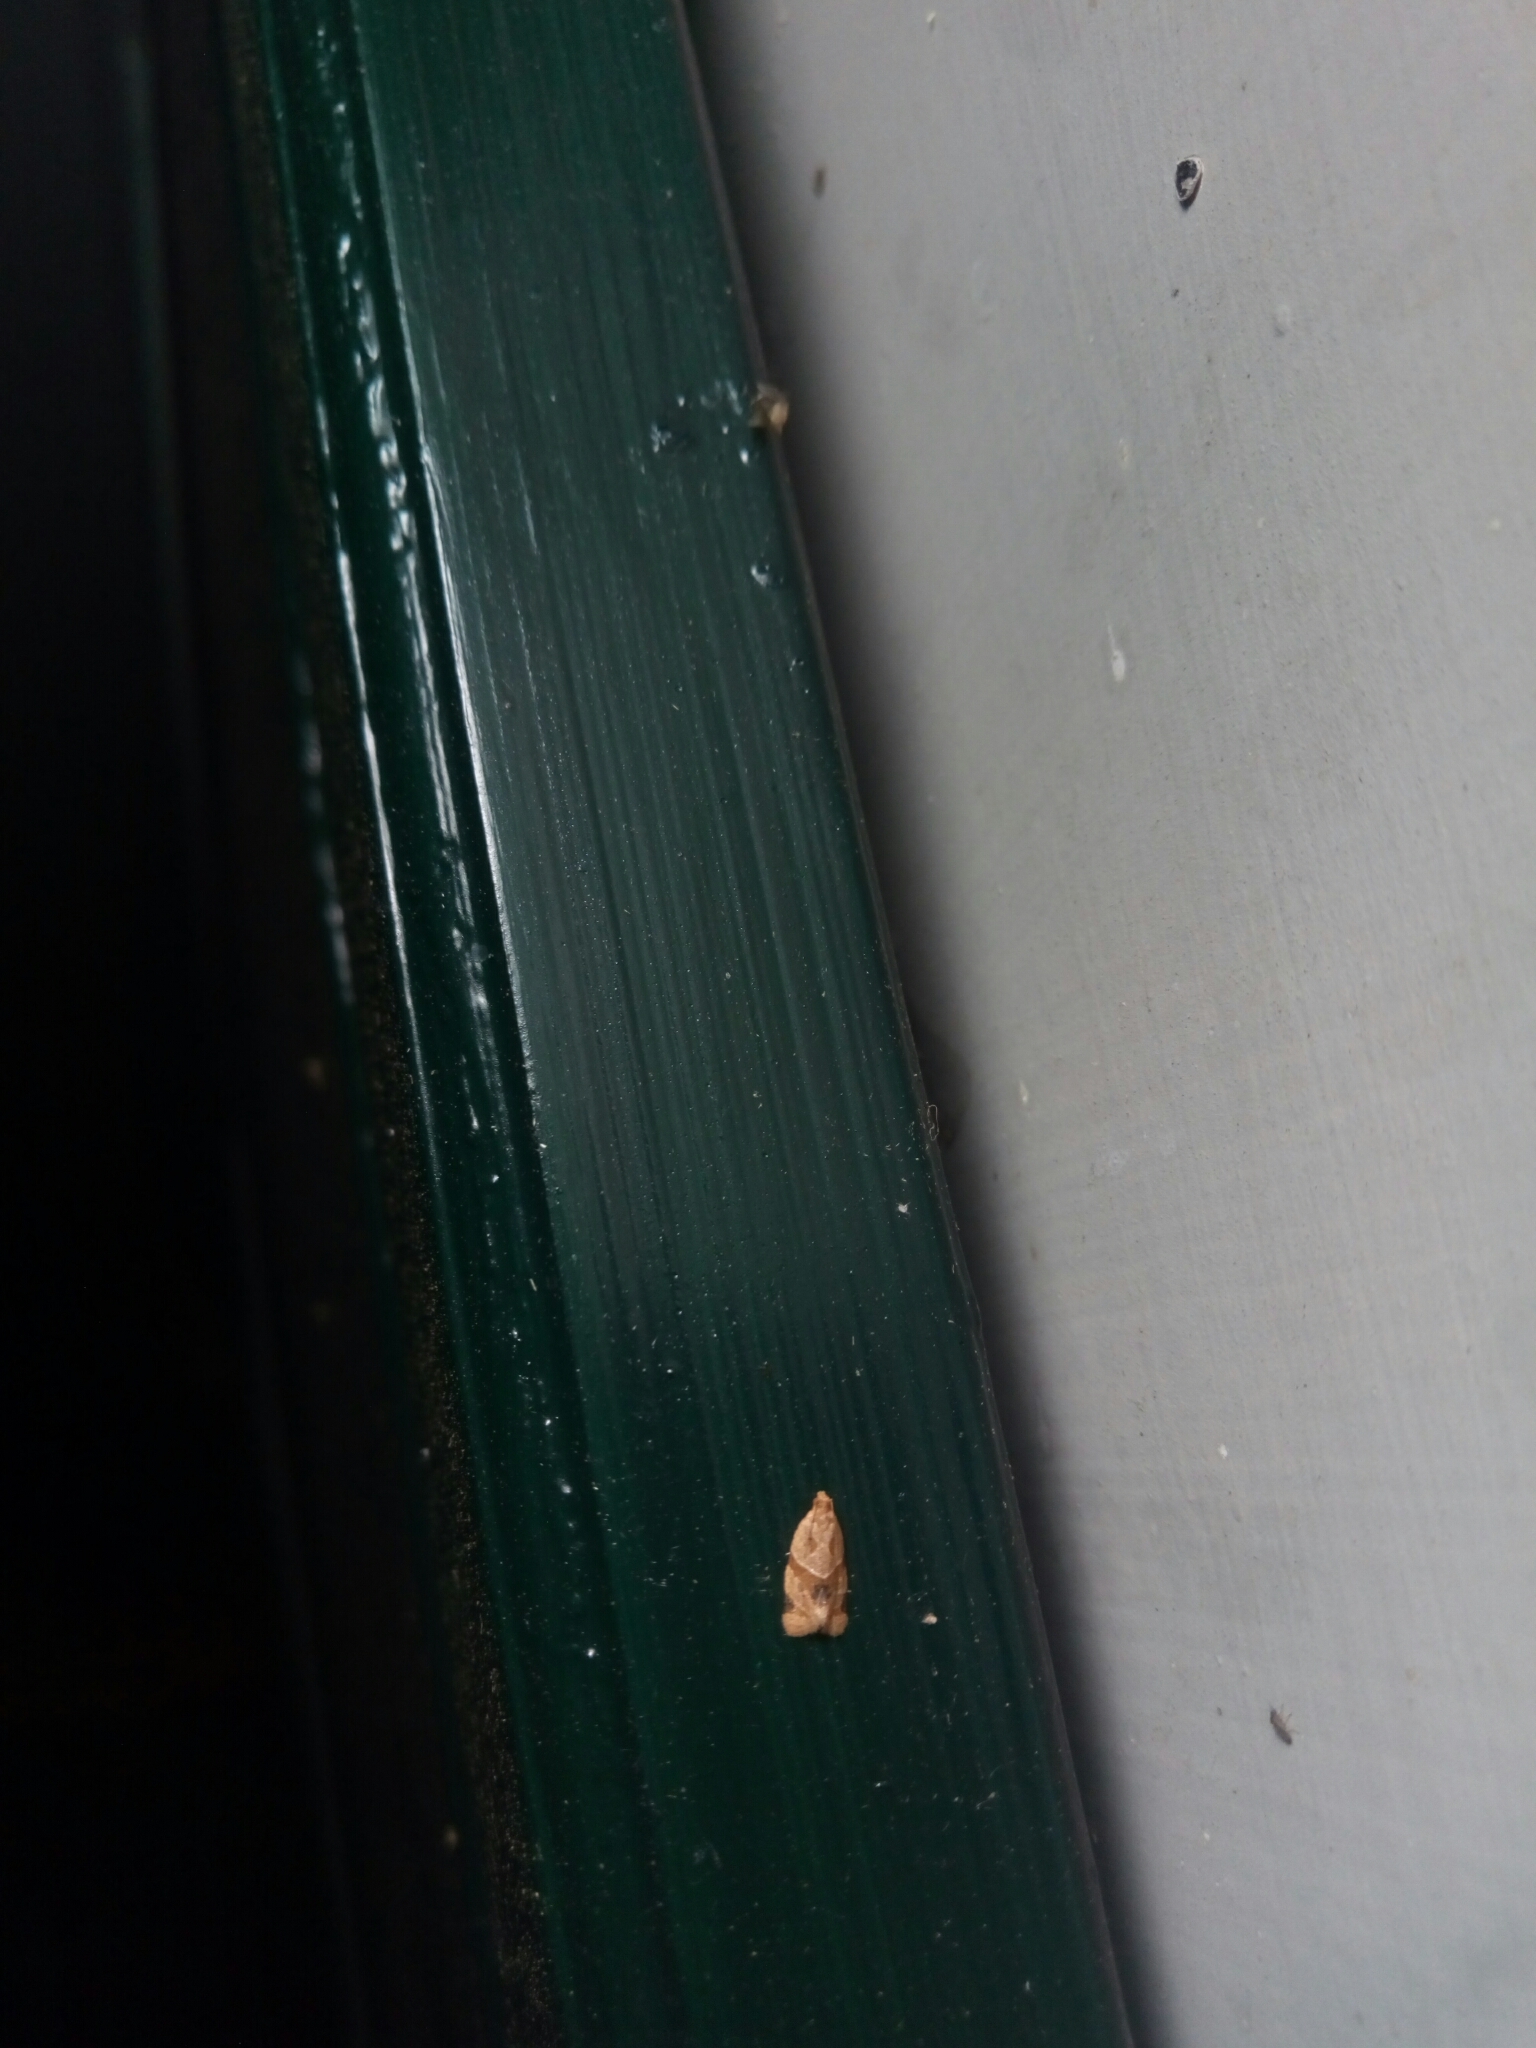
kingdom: Animalia
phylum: Arthropoda
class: Insecta
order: Lepidoptera
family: Tortricidae
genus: Clepsis
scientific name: Clepsis peritana
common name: Garden tortrix
